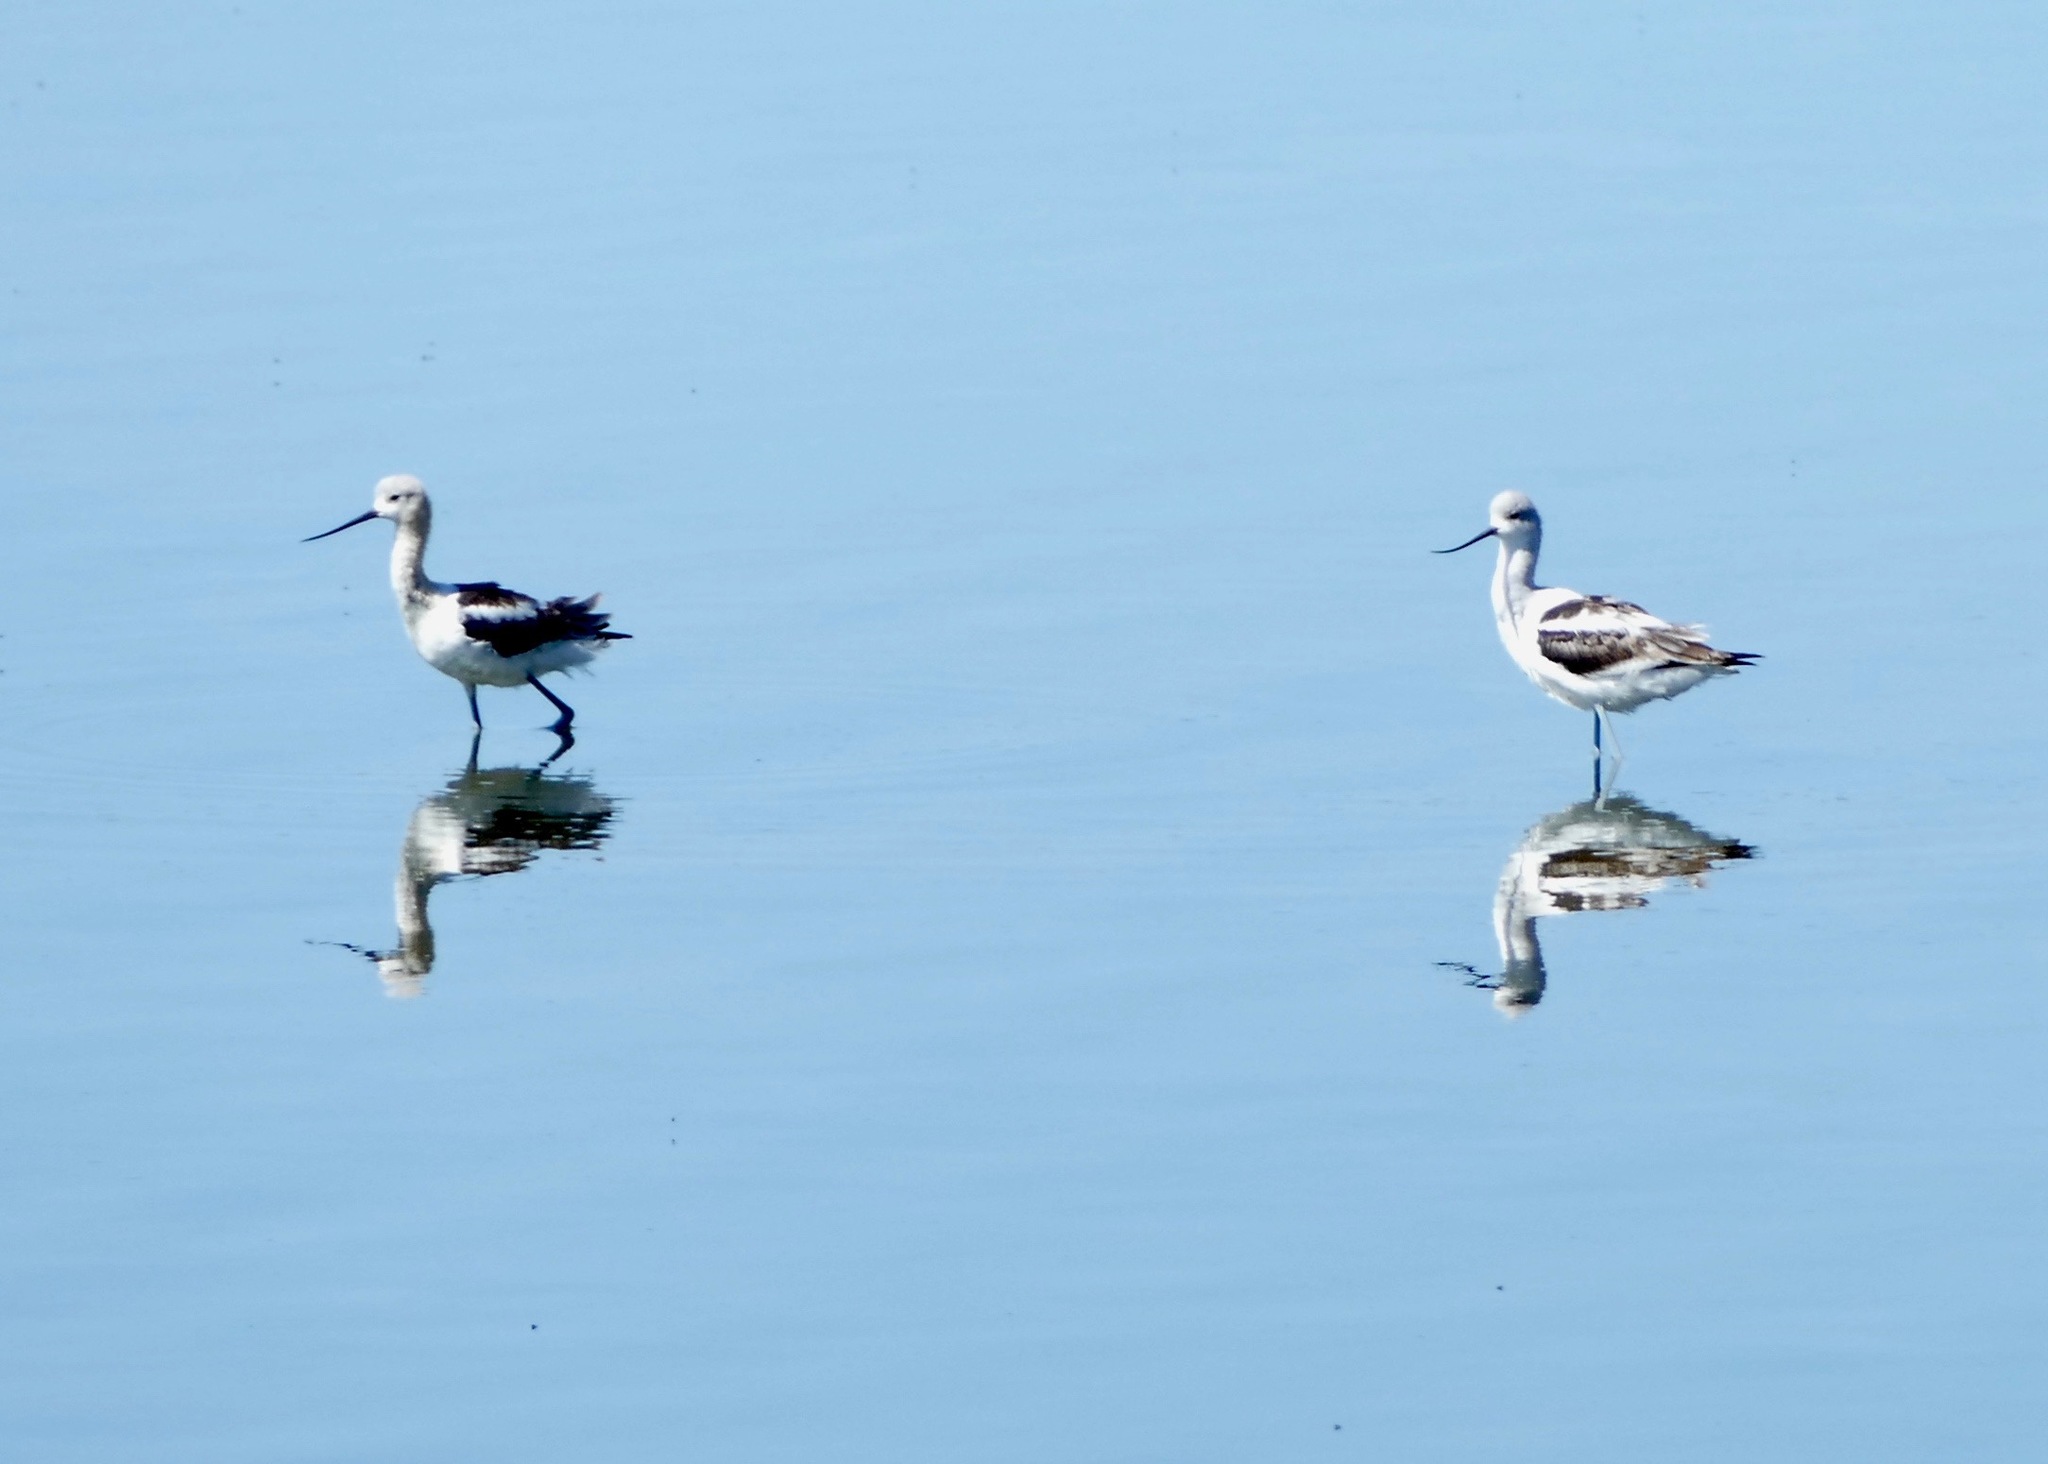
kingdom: Animalia
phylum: Chordata
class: Aves
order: Charadriiformes
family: Recurvirostridae
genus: Recurvirostra
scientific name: Recurvirostra americana
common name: American avocet
